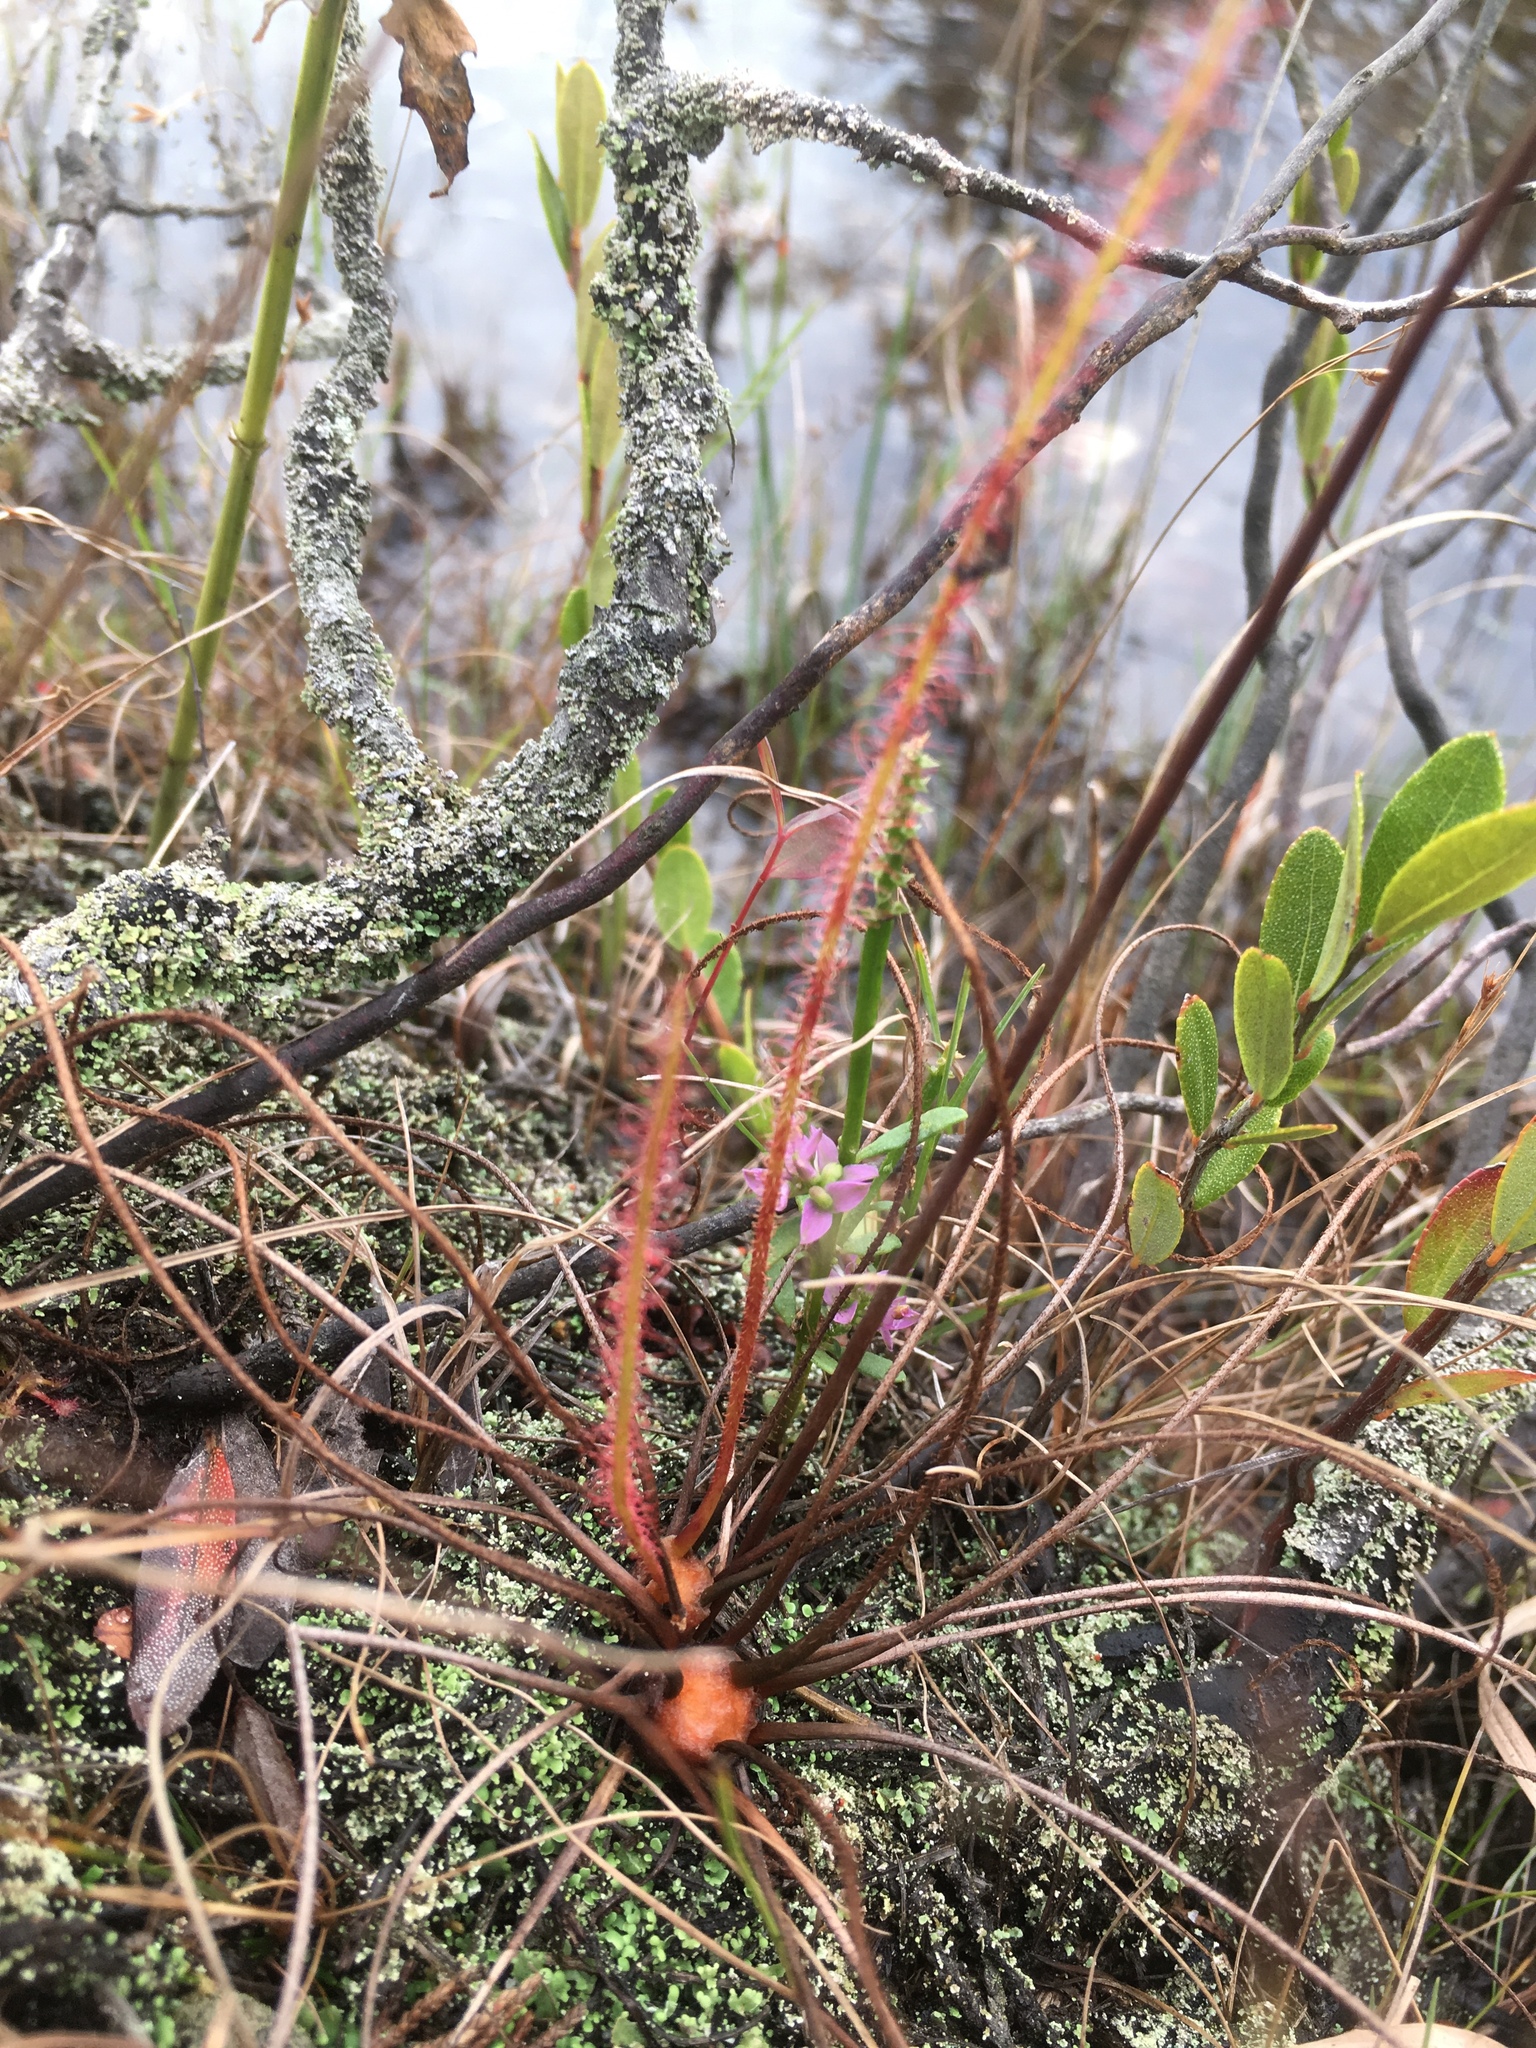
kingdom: Plantae
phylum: Tracheophyta
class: Magnoliopsida
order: Caryophyllales
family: Droseraceae
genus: Drosera
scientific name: Drosera filiformis
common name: Dew-thread
